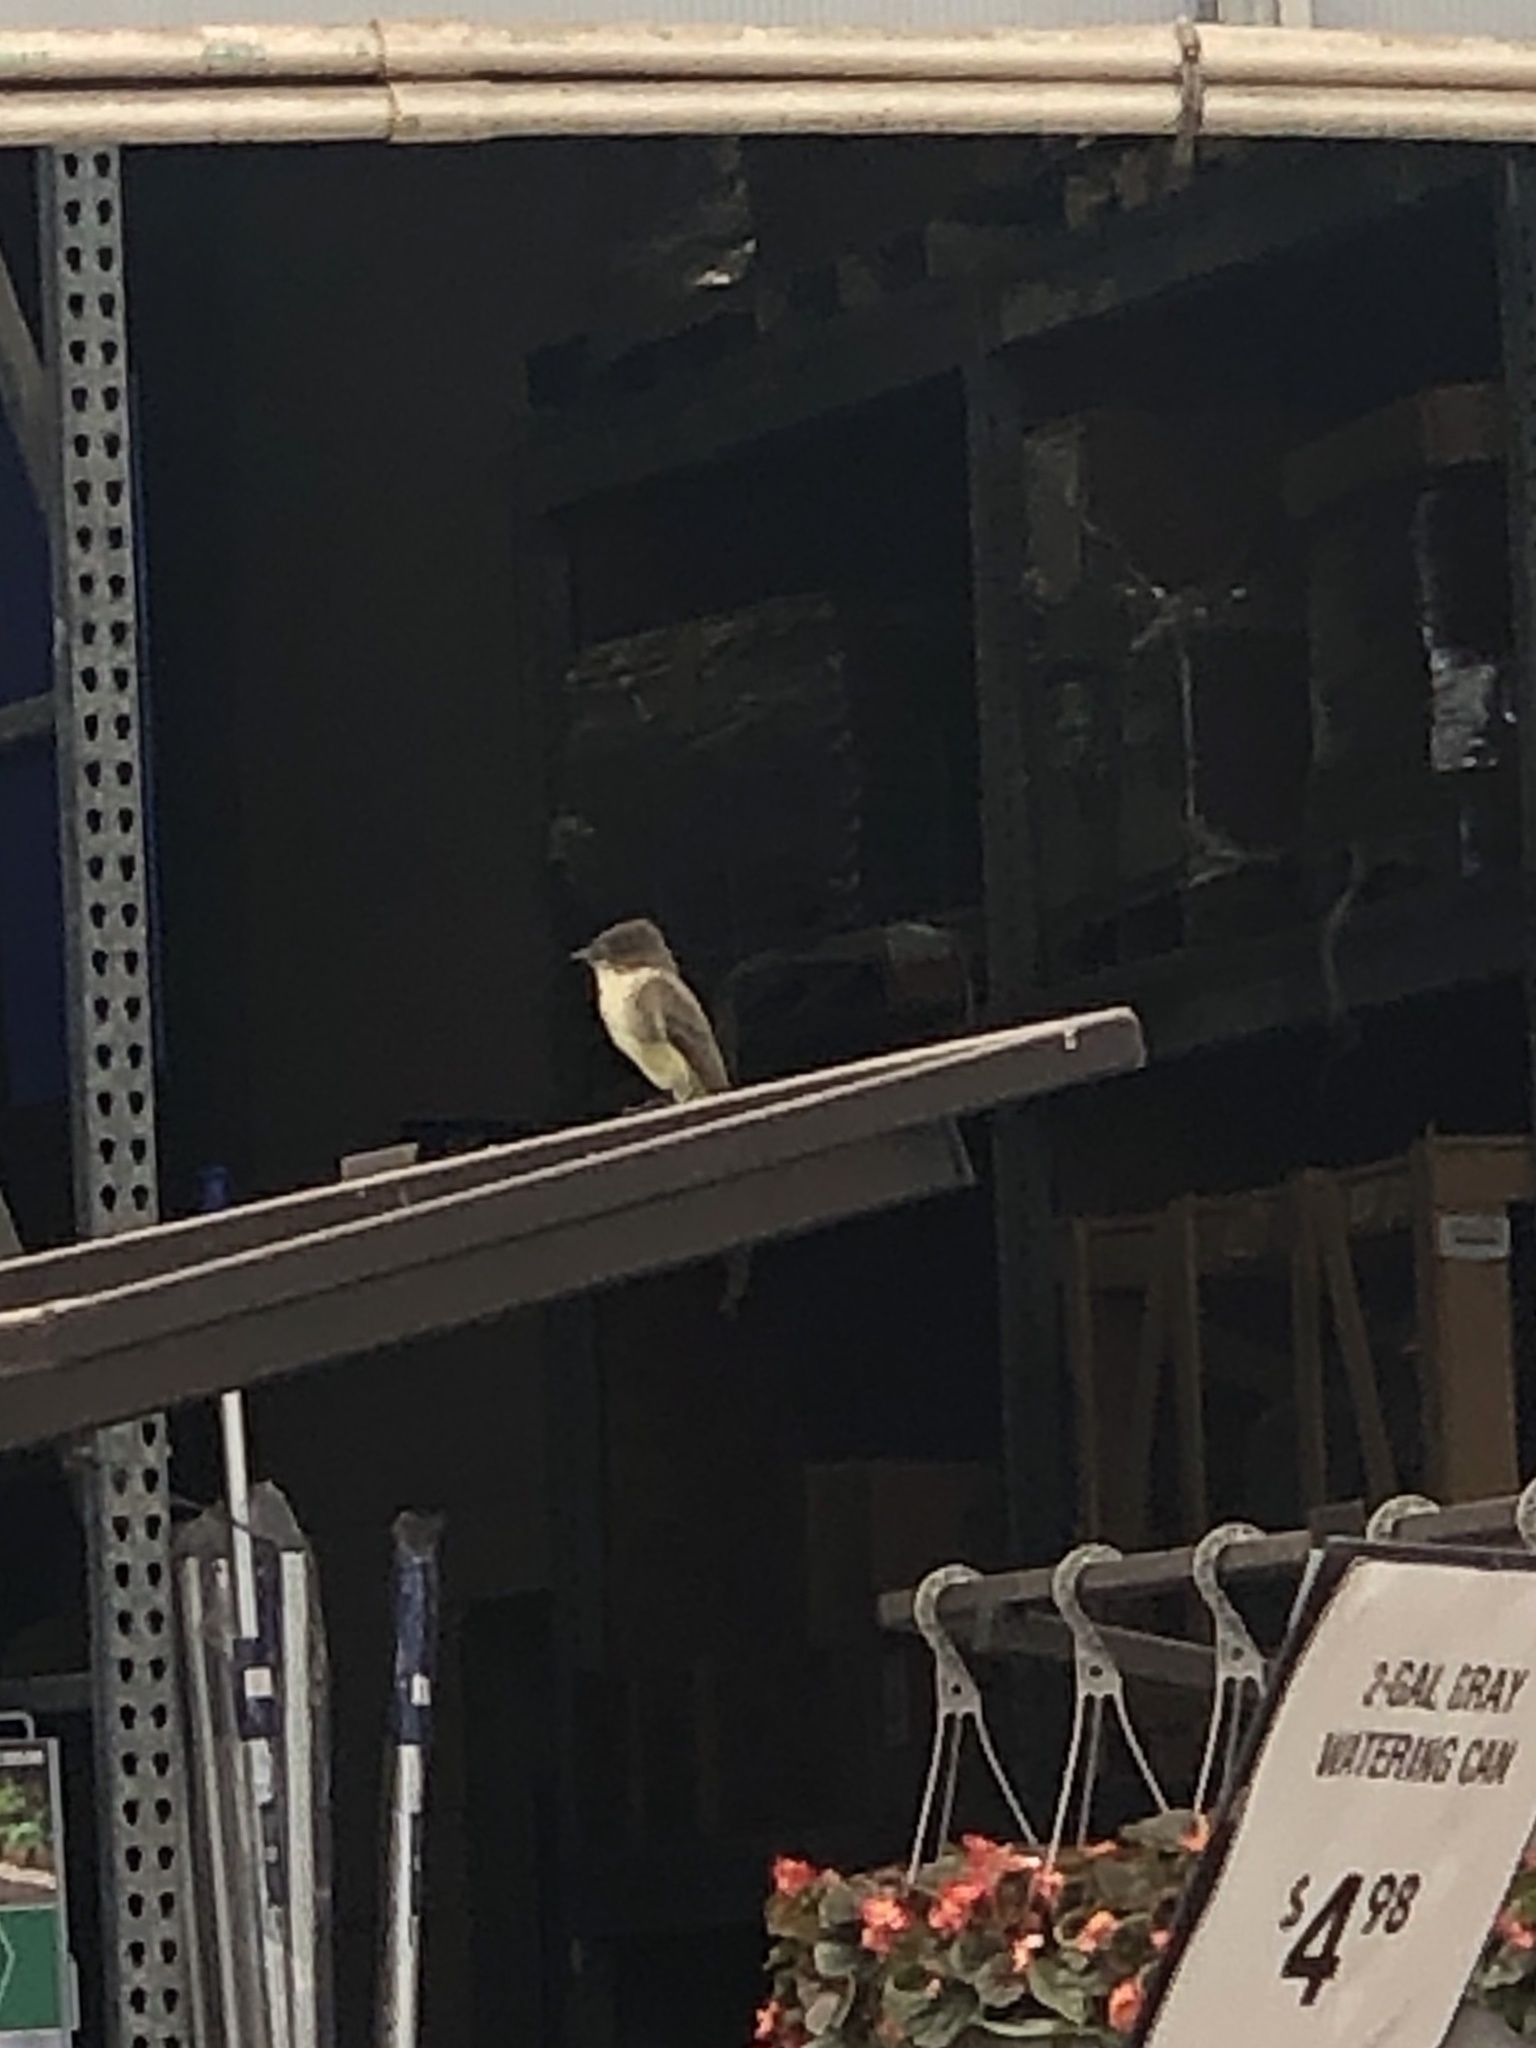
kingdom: Animalia
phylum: Chordata
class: Aves
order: Passeriformes
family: Tyrannidae
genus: Sayornis
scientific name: Sayornis phoebe
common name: Eastern phoebe
